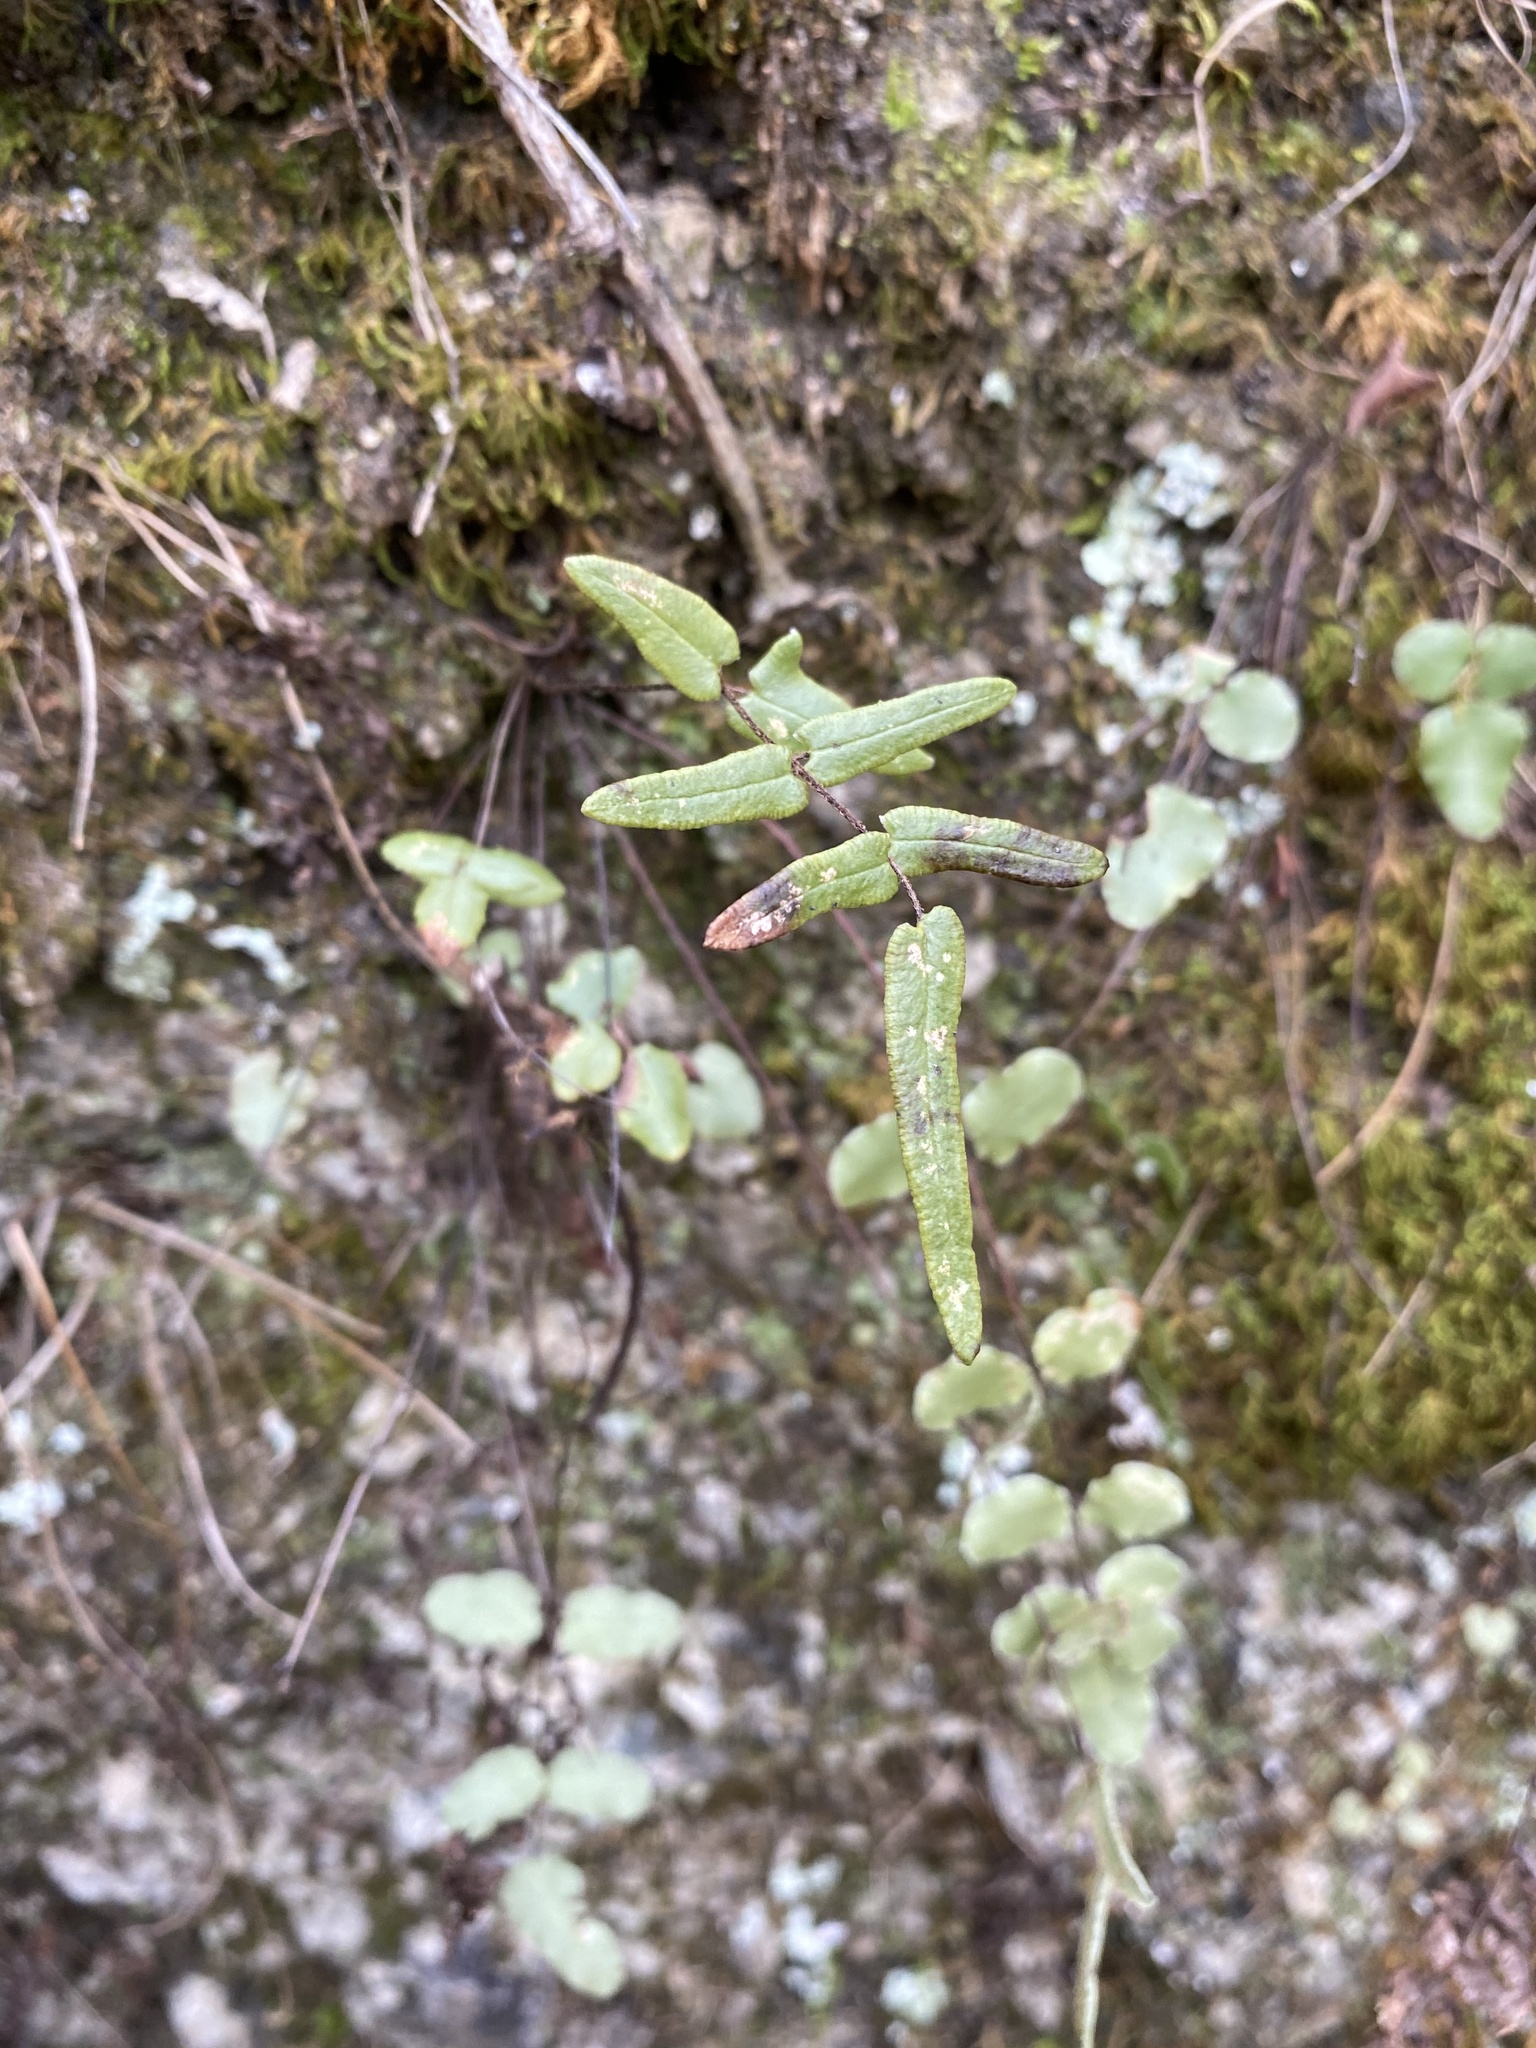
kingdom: Plantae
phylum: Tracheophyta
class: Polypodiopsida
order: Polypodiales
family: Pteridaceae
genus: Pellaea
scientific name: Pellaea atropurpurea
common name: Hairy cliffbrake
